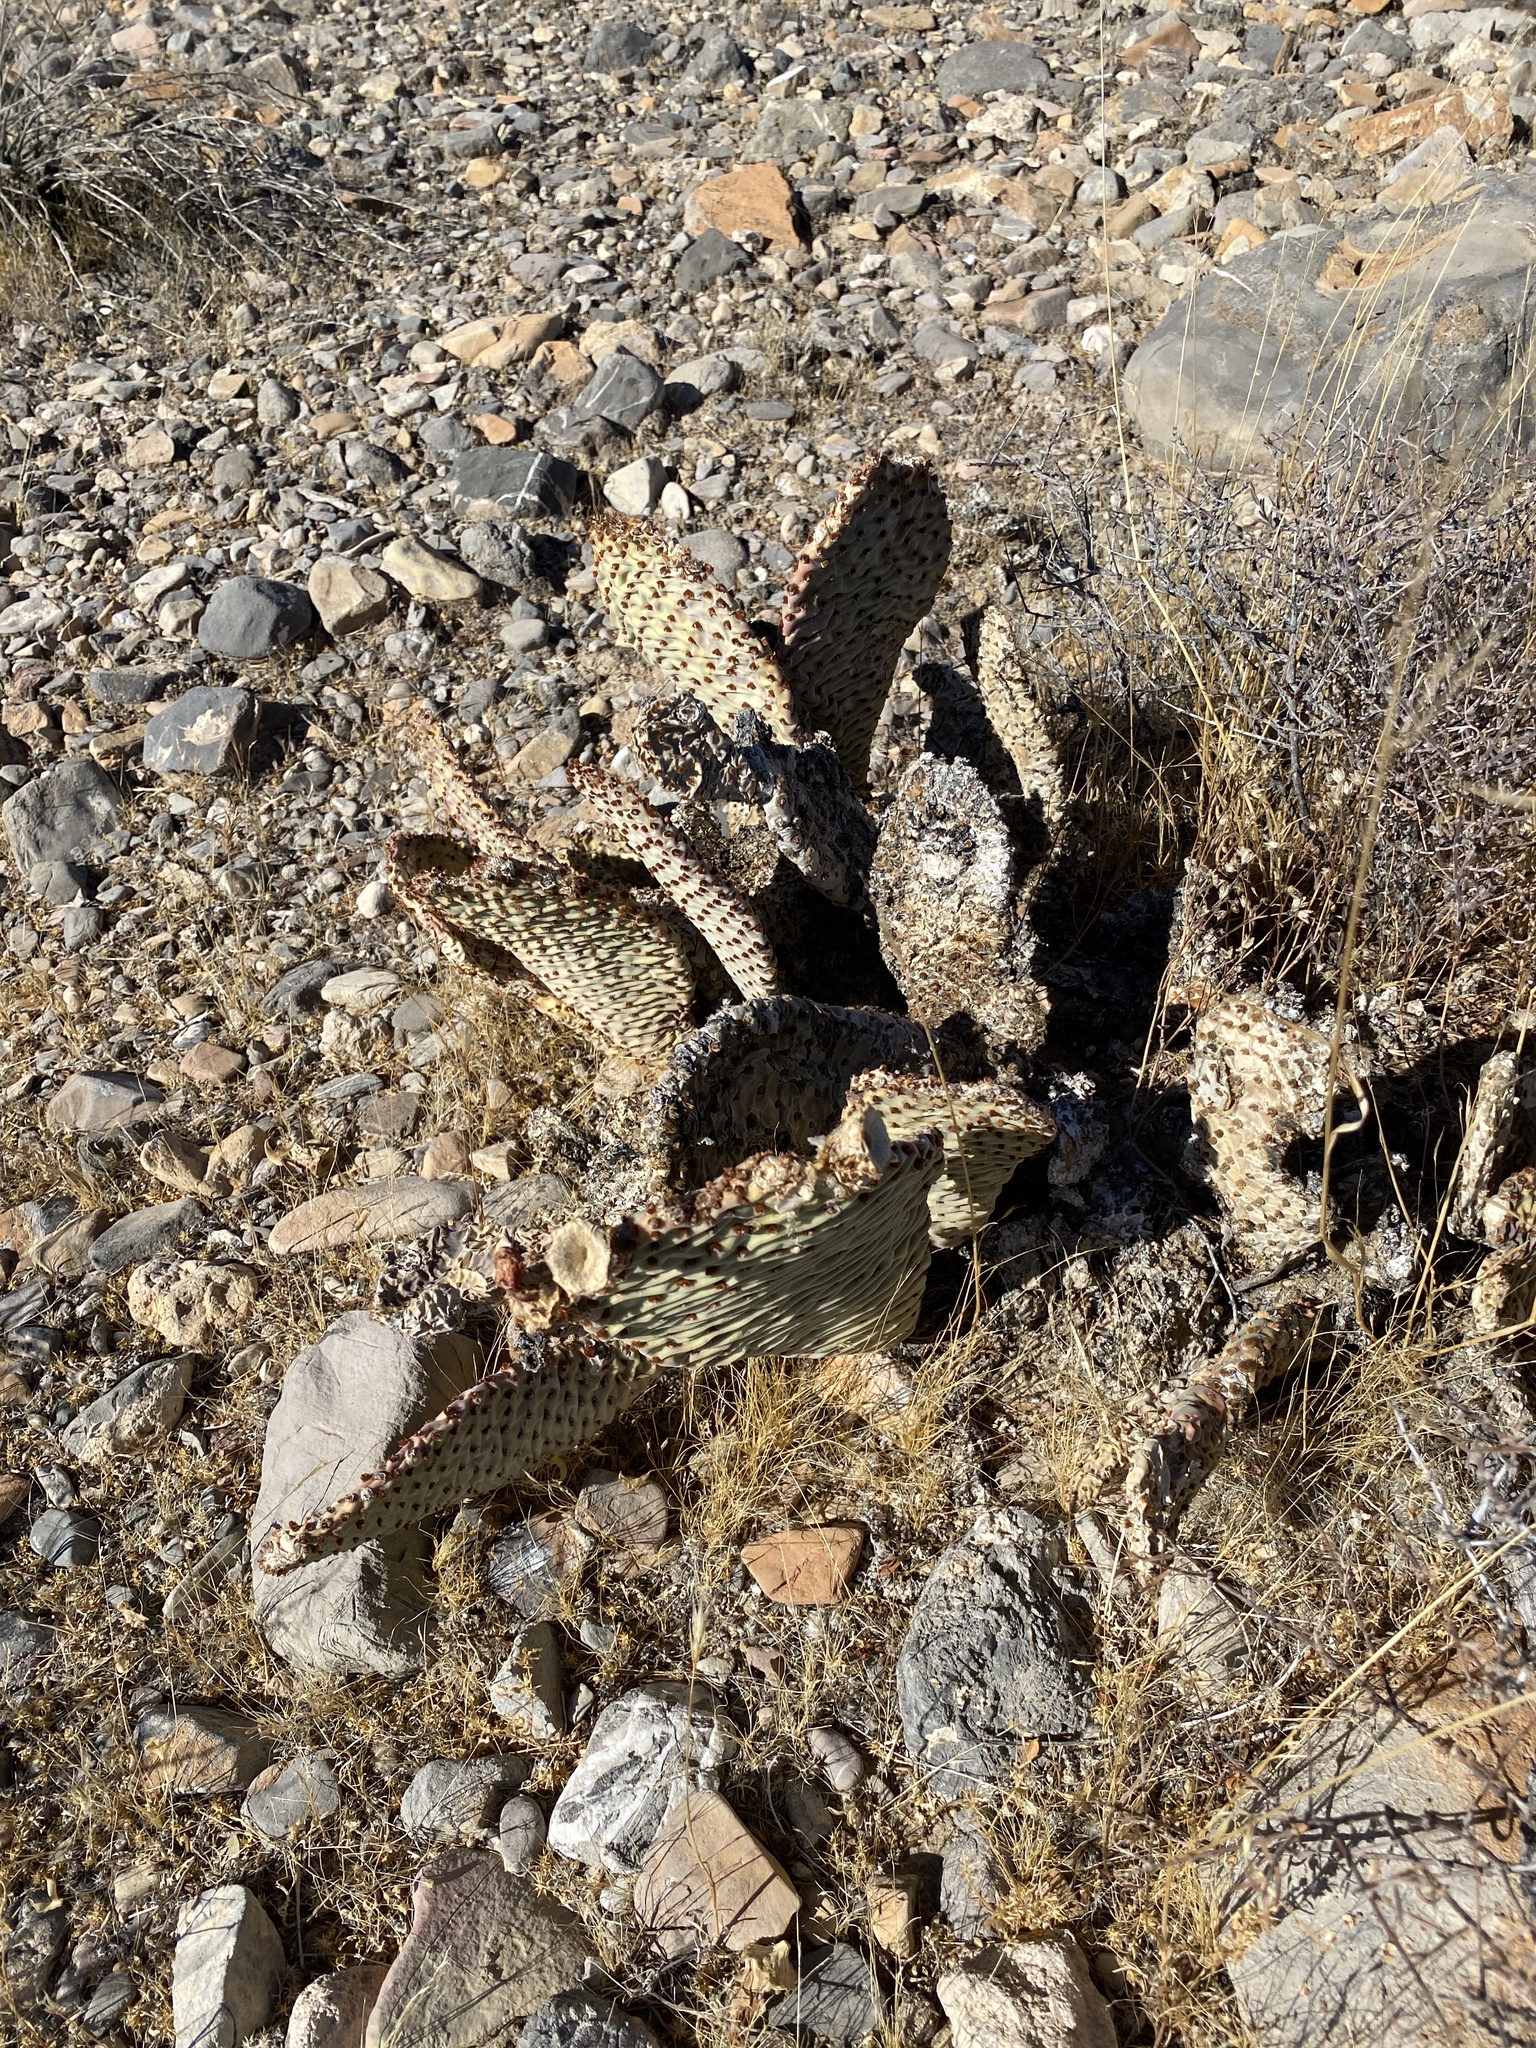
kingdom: Plantae
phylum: Tracheophyta
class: Magnoliopsida
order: Caryophyllales
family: Cactaceae
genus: Opuntia
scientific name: Opuntia basilaris
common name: Beavertail prickly-pear
